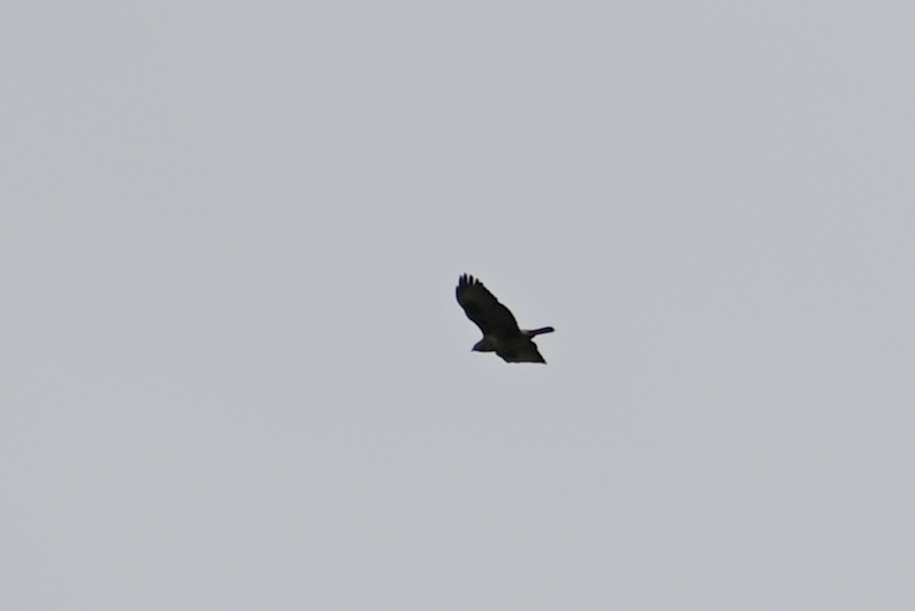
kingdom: Animalia
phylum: Chordata
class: Aves
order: Accipitriformes
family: Accipitridae
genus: Buteo
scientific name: Buteo buteo
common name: Common buzzard
